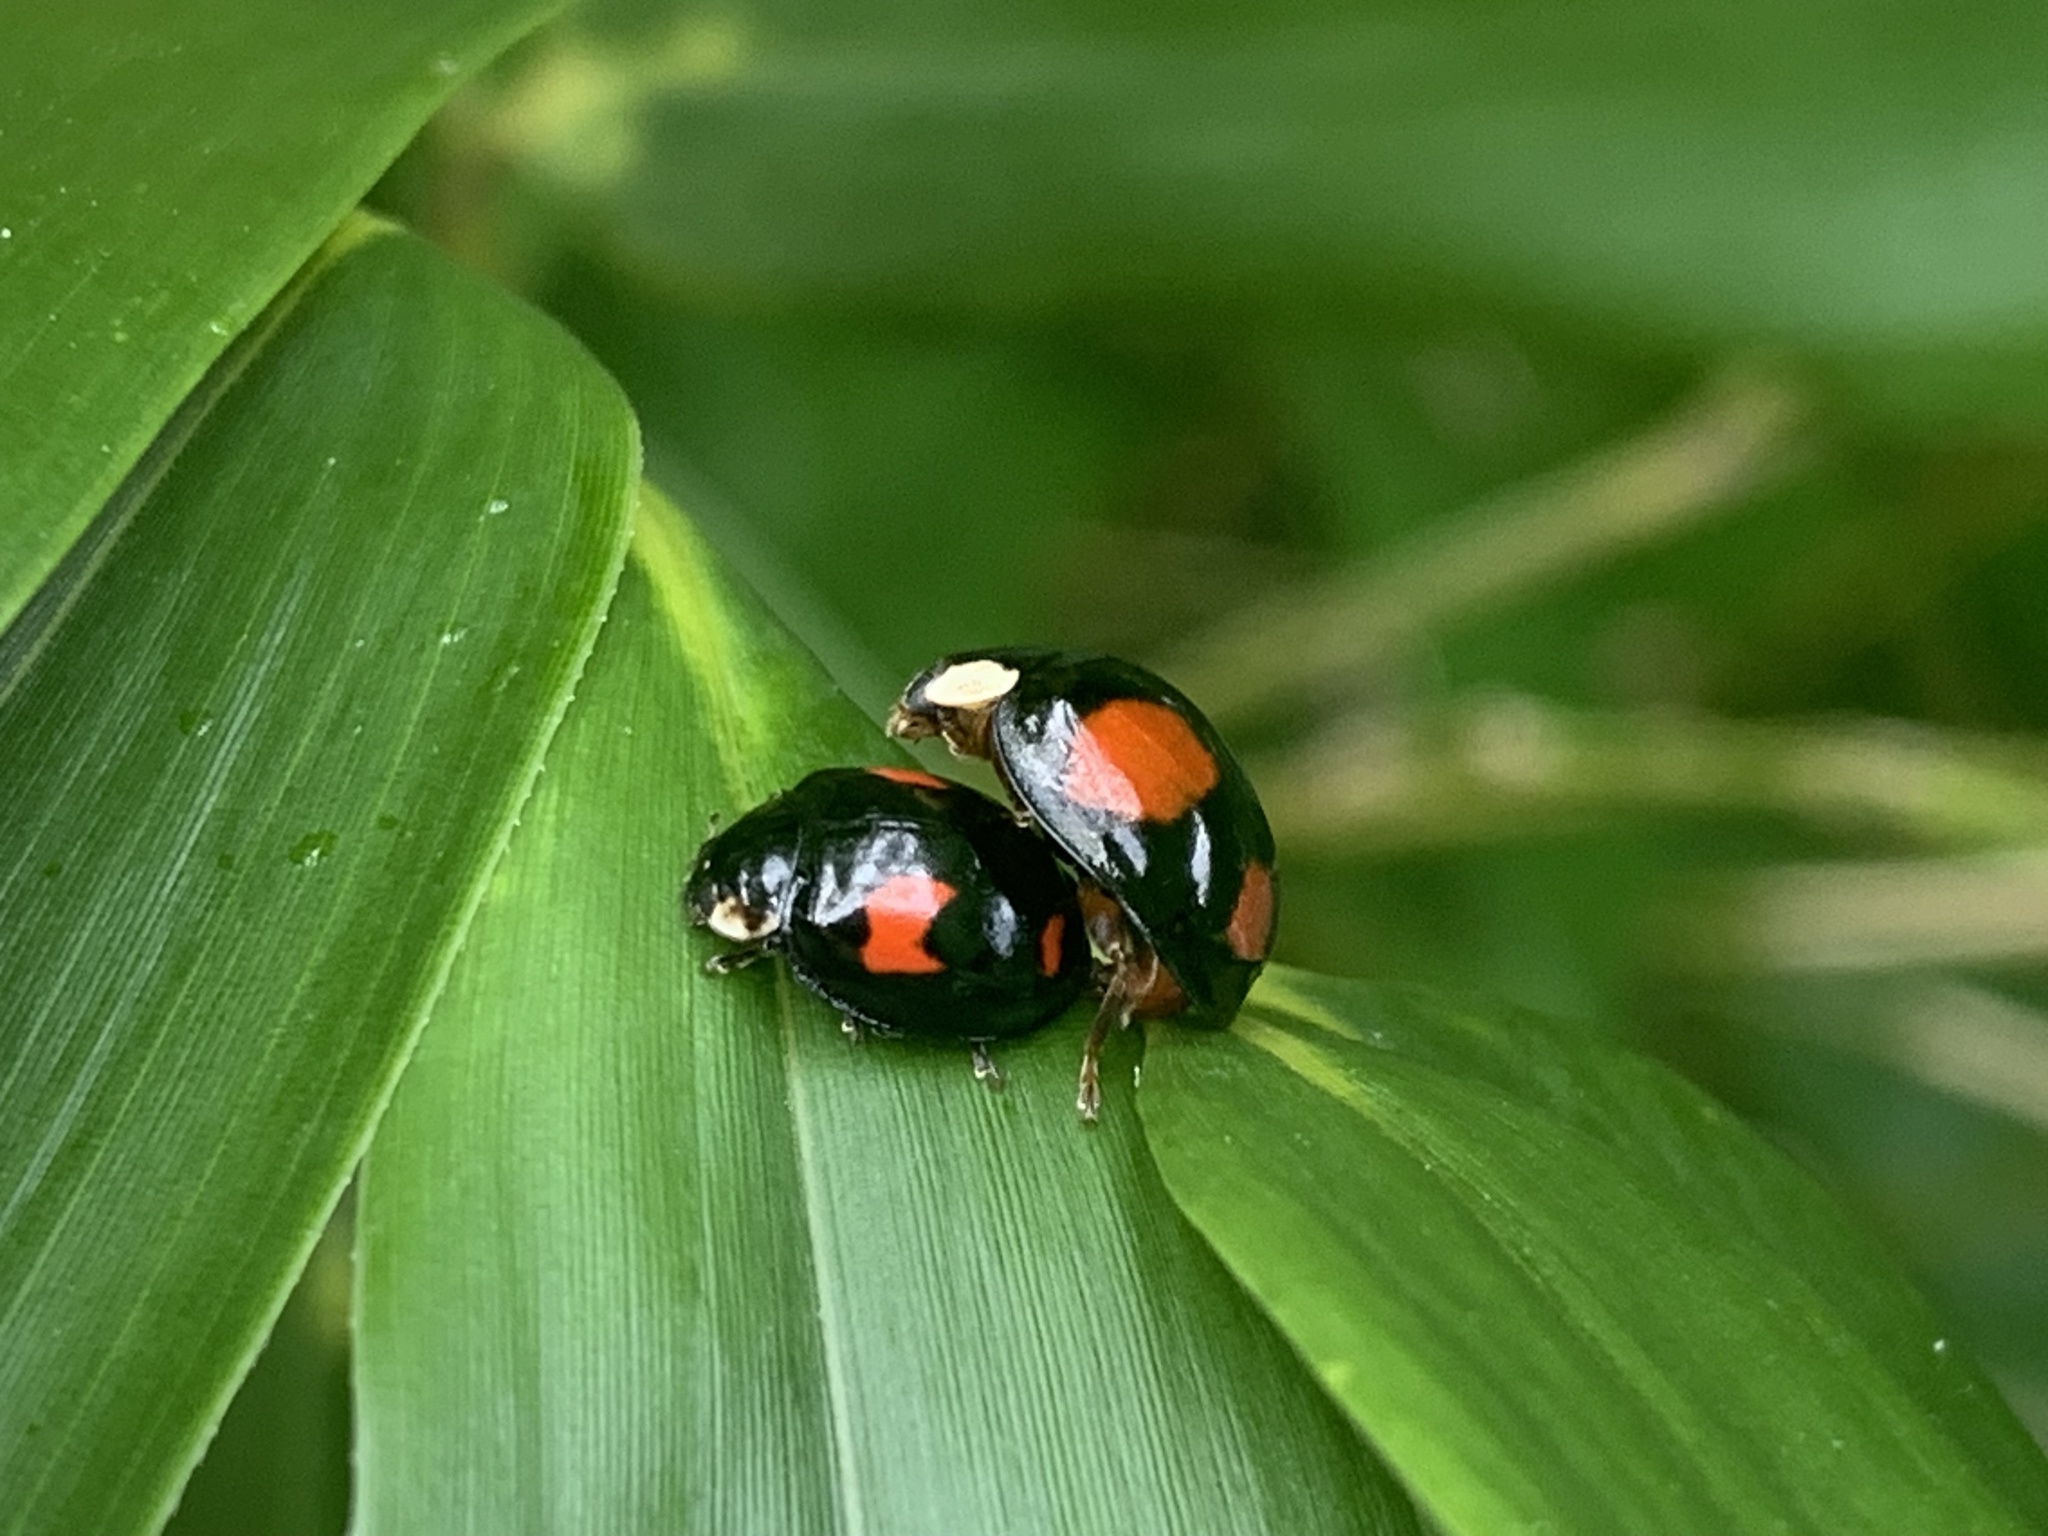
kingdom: Animalia
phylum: Arthropoda
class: Insecta
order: Coleoptera
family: Coccinellidae
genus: Harmonia
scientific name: Harmonia axyridis
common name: Harlequin ladybird
